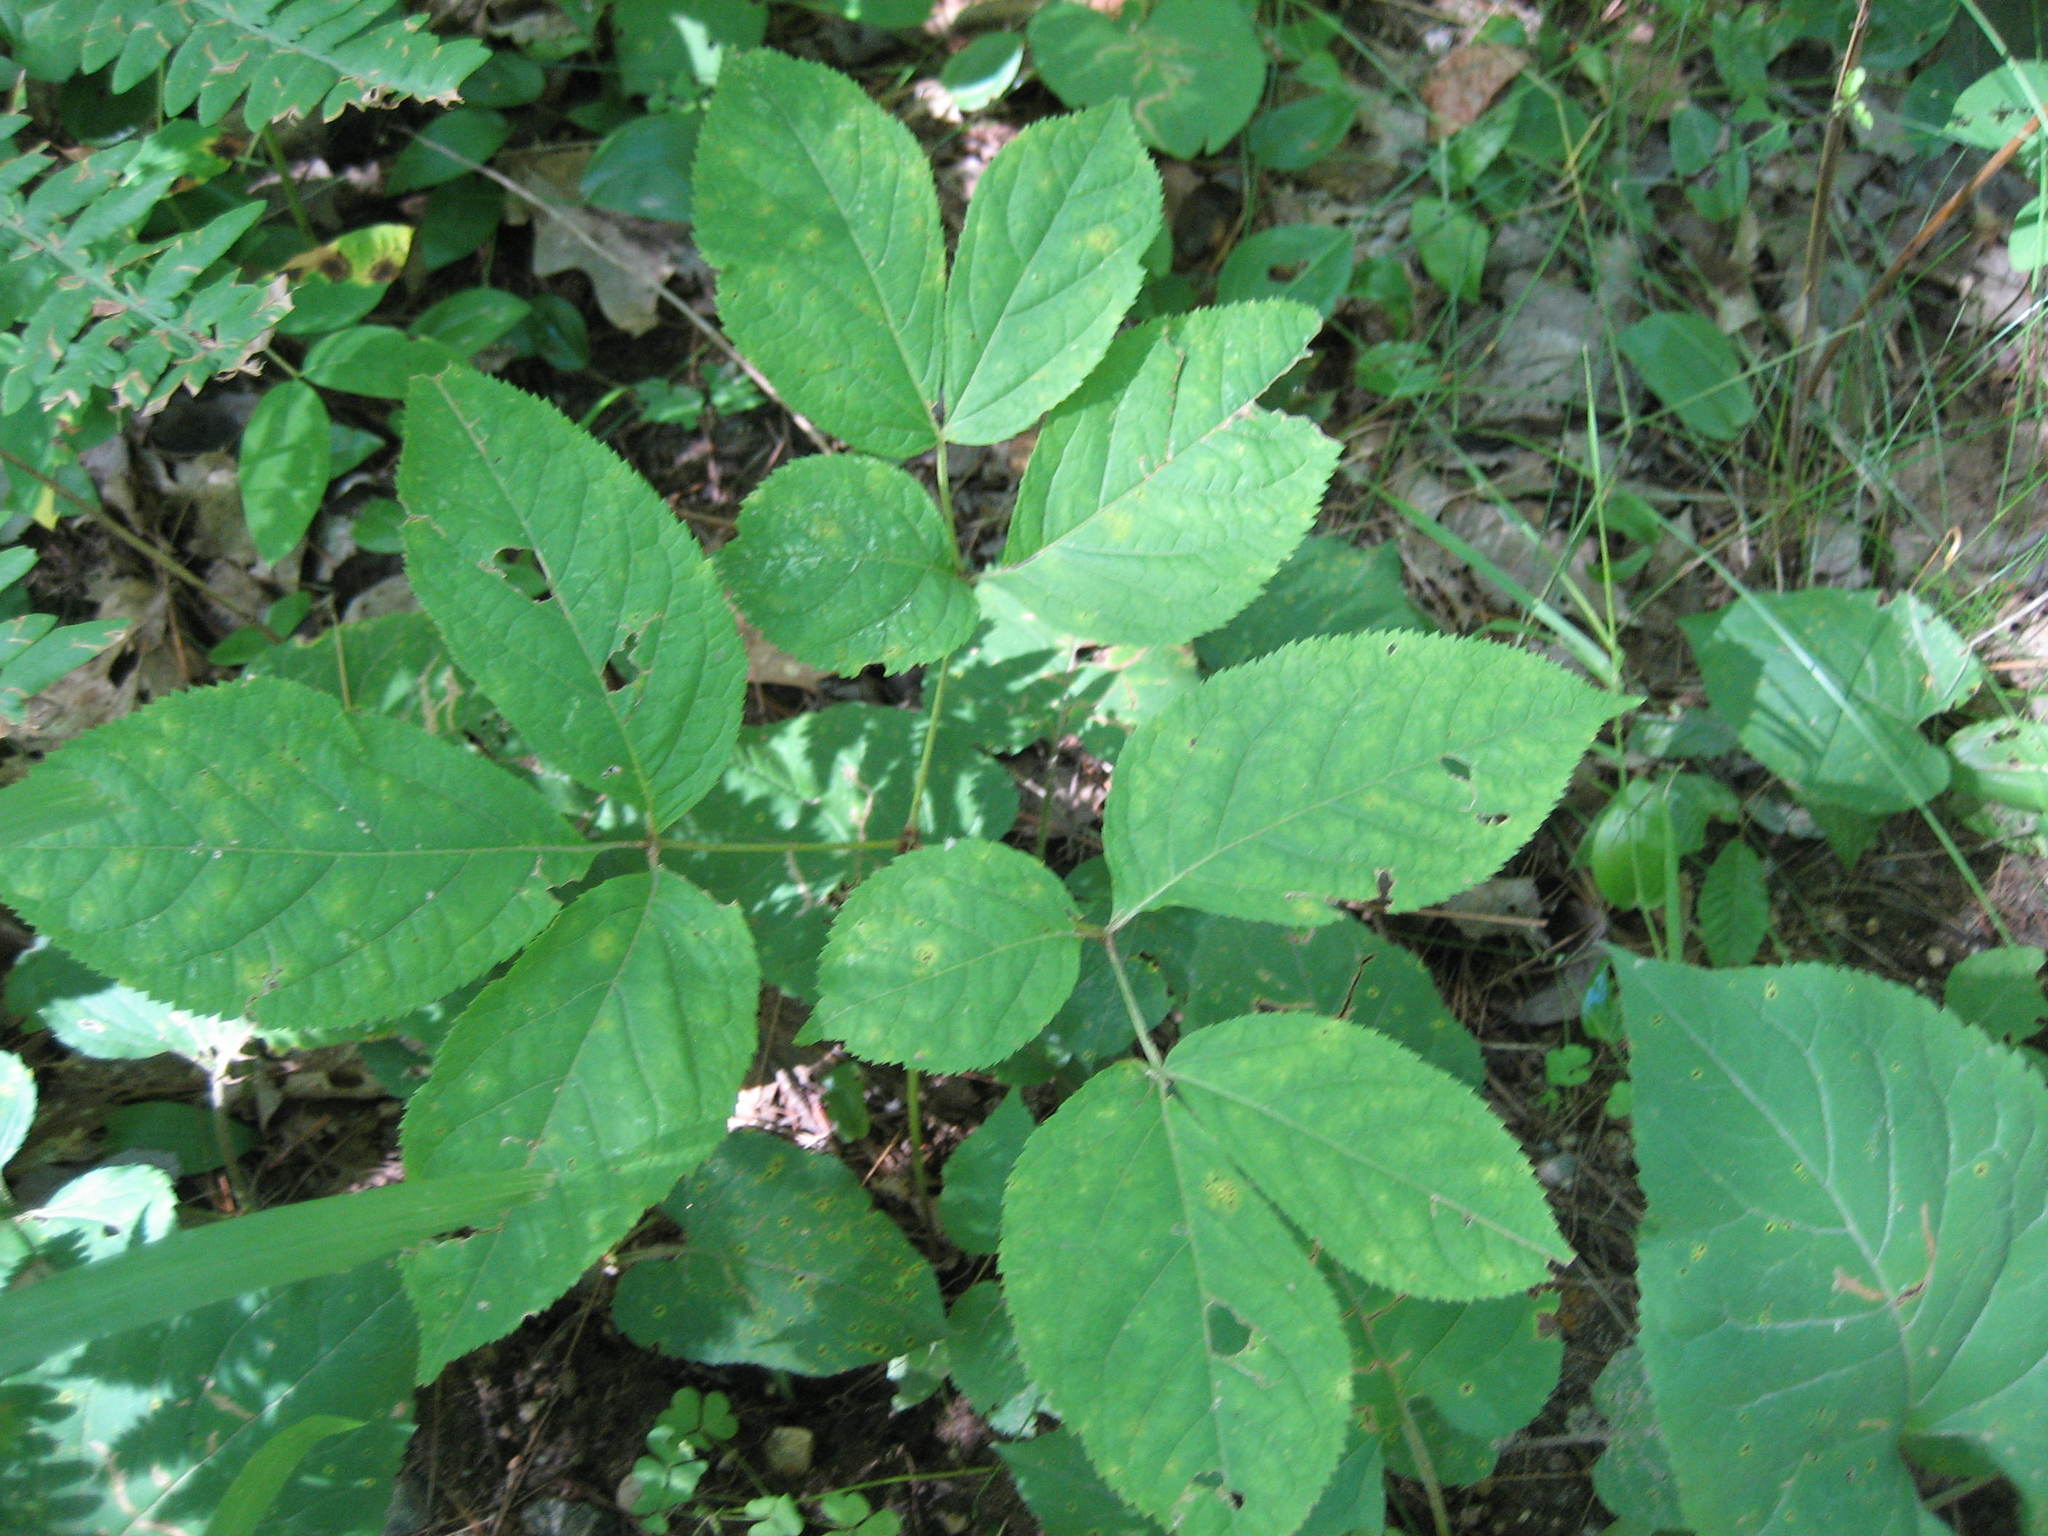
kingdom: Plantae
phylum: Tracheophyta
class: Magnoliopsida
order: Apiales
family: Araliaceae
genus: Aralia
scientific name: Aralia nudicaulis
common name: Wild sarsaparilla
